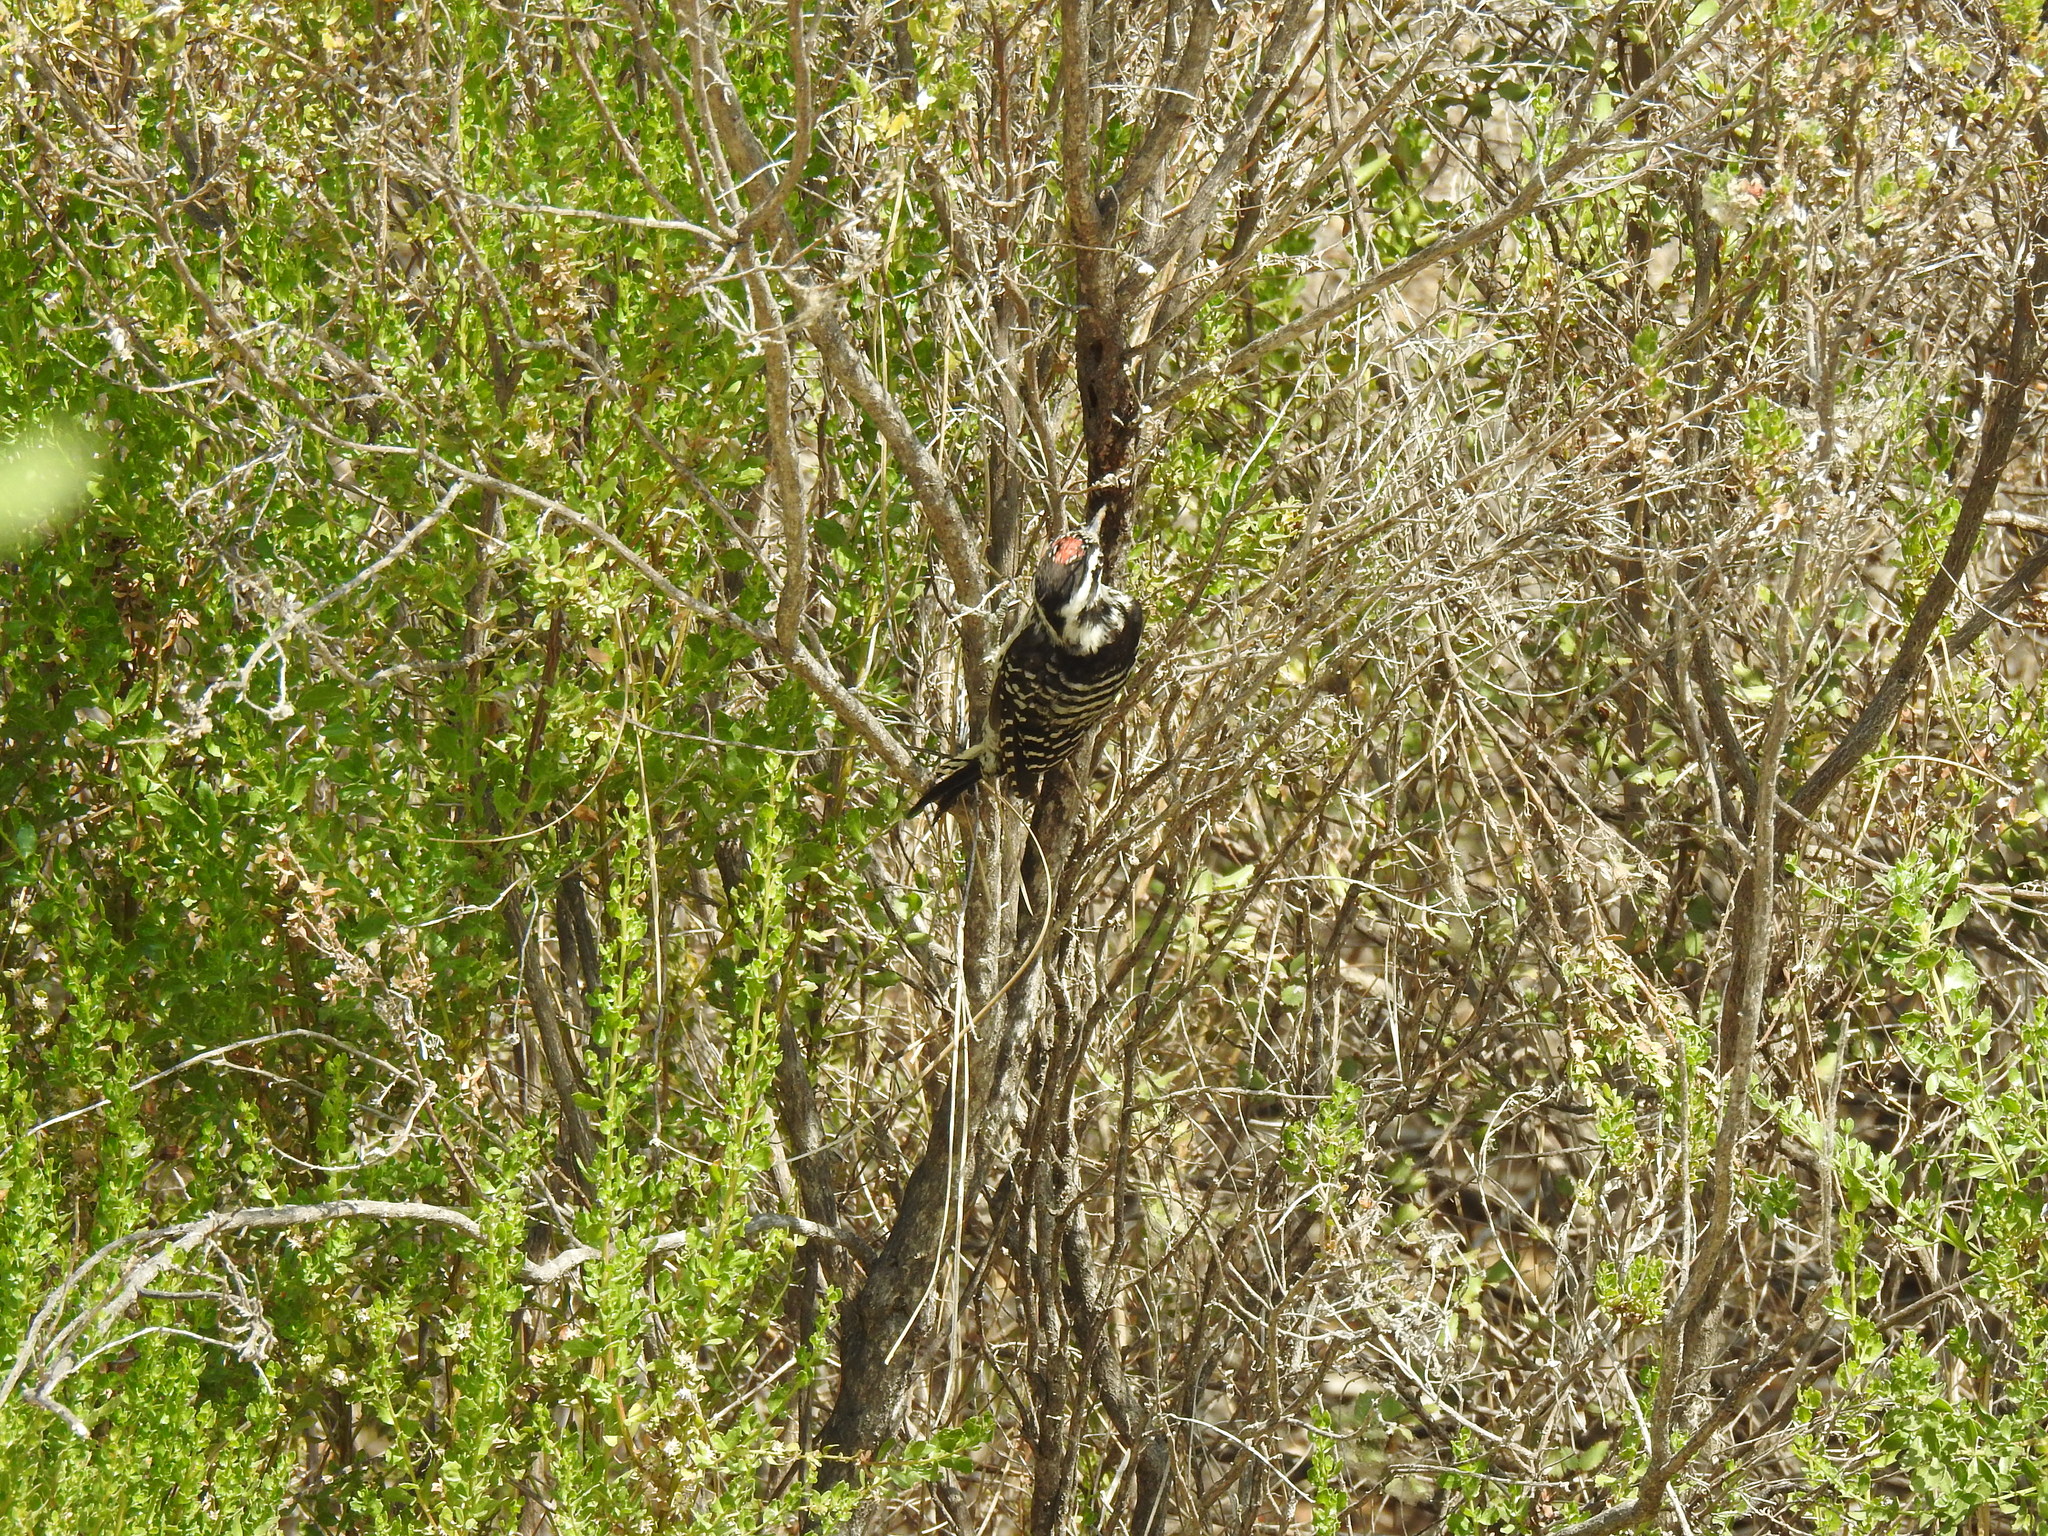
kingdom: Animalia
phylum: Chordata
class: Aves
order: Piciformes
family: Picidae
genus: Dryobates
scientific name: Dryobates nuttallii
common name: Nuttall's woodpecker
